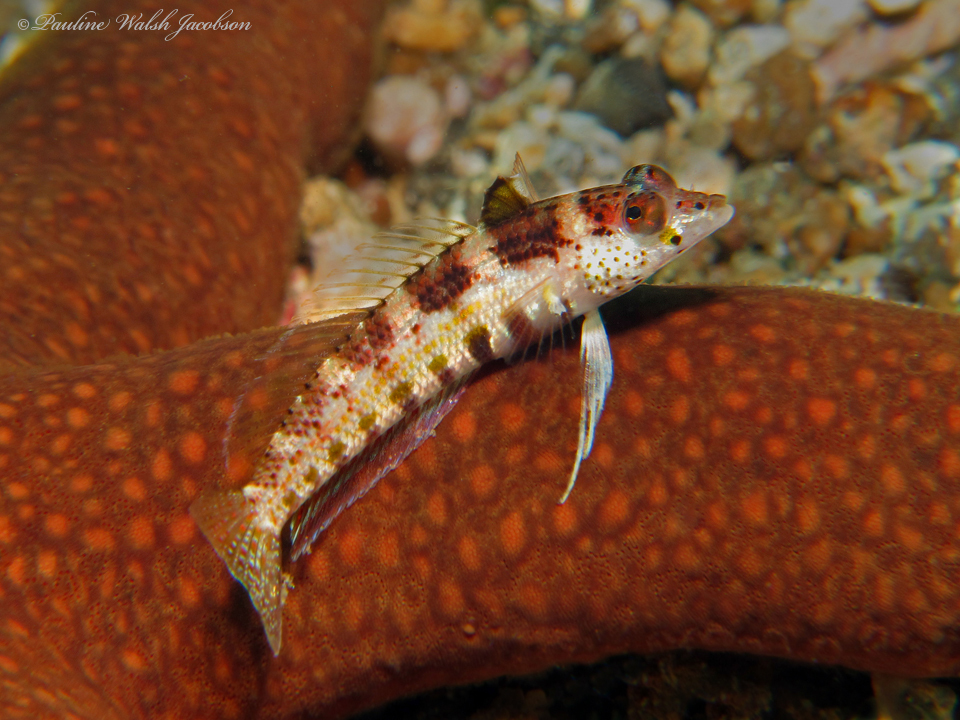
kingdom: Animalia
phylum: Chordata
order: Perciformes
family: Pinguipedidae
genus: Parapercis
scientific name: Parapercis snyderi
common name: U-mark sandperch
